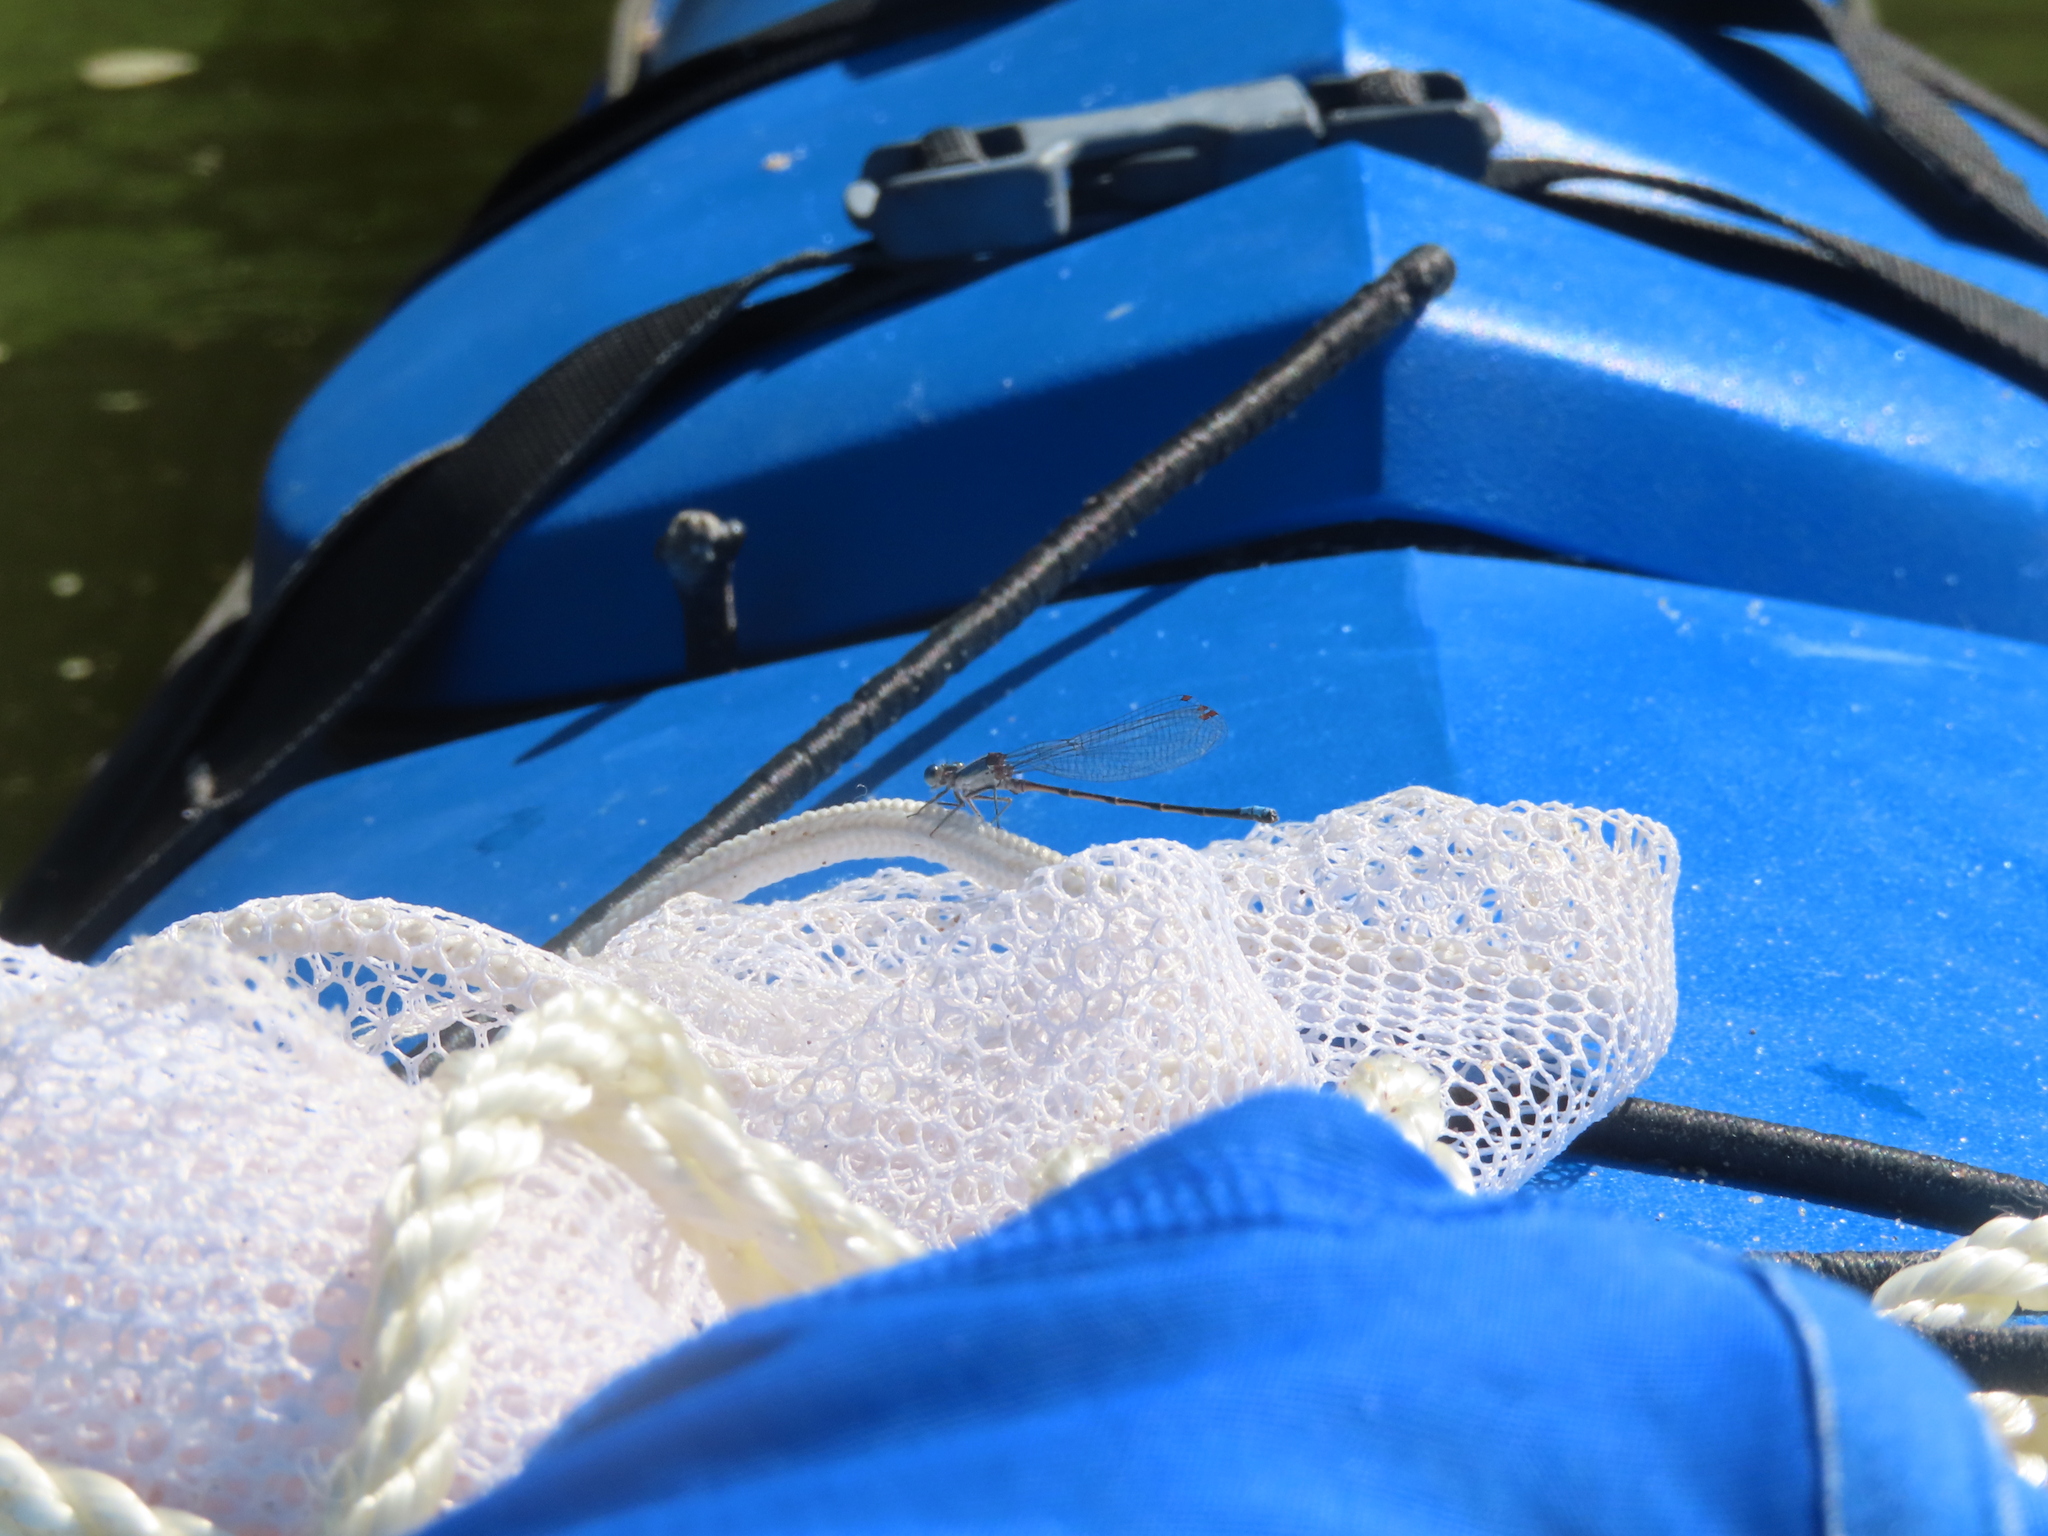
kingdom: Animalia
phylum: Arthropoda
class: Insecta
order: Odonata
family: Coenagrionidae
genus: Argia
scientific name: Argia apicalis
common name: Blue-fronted dancer
